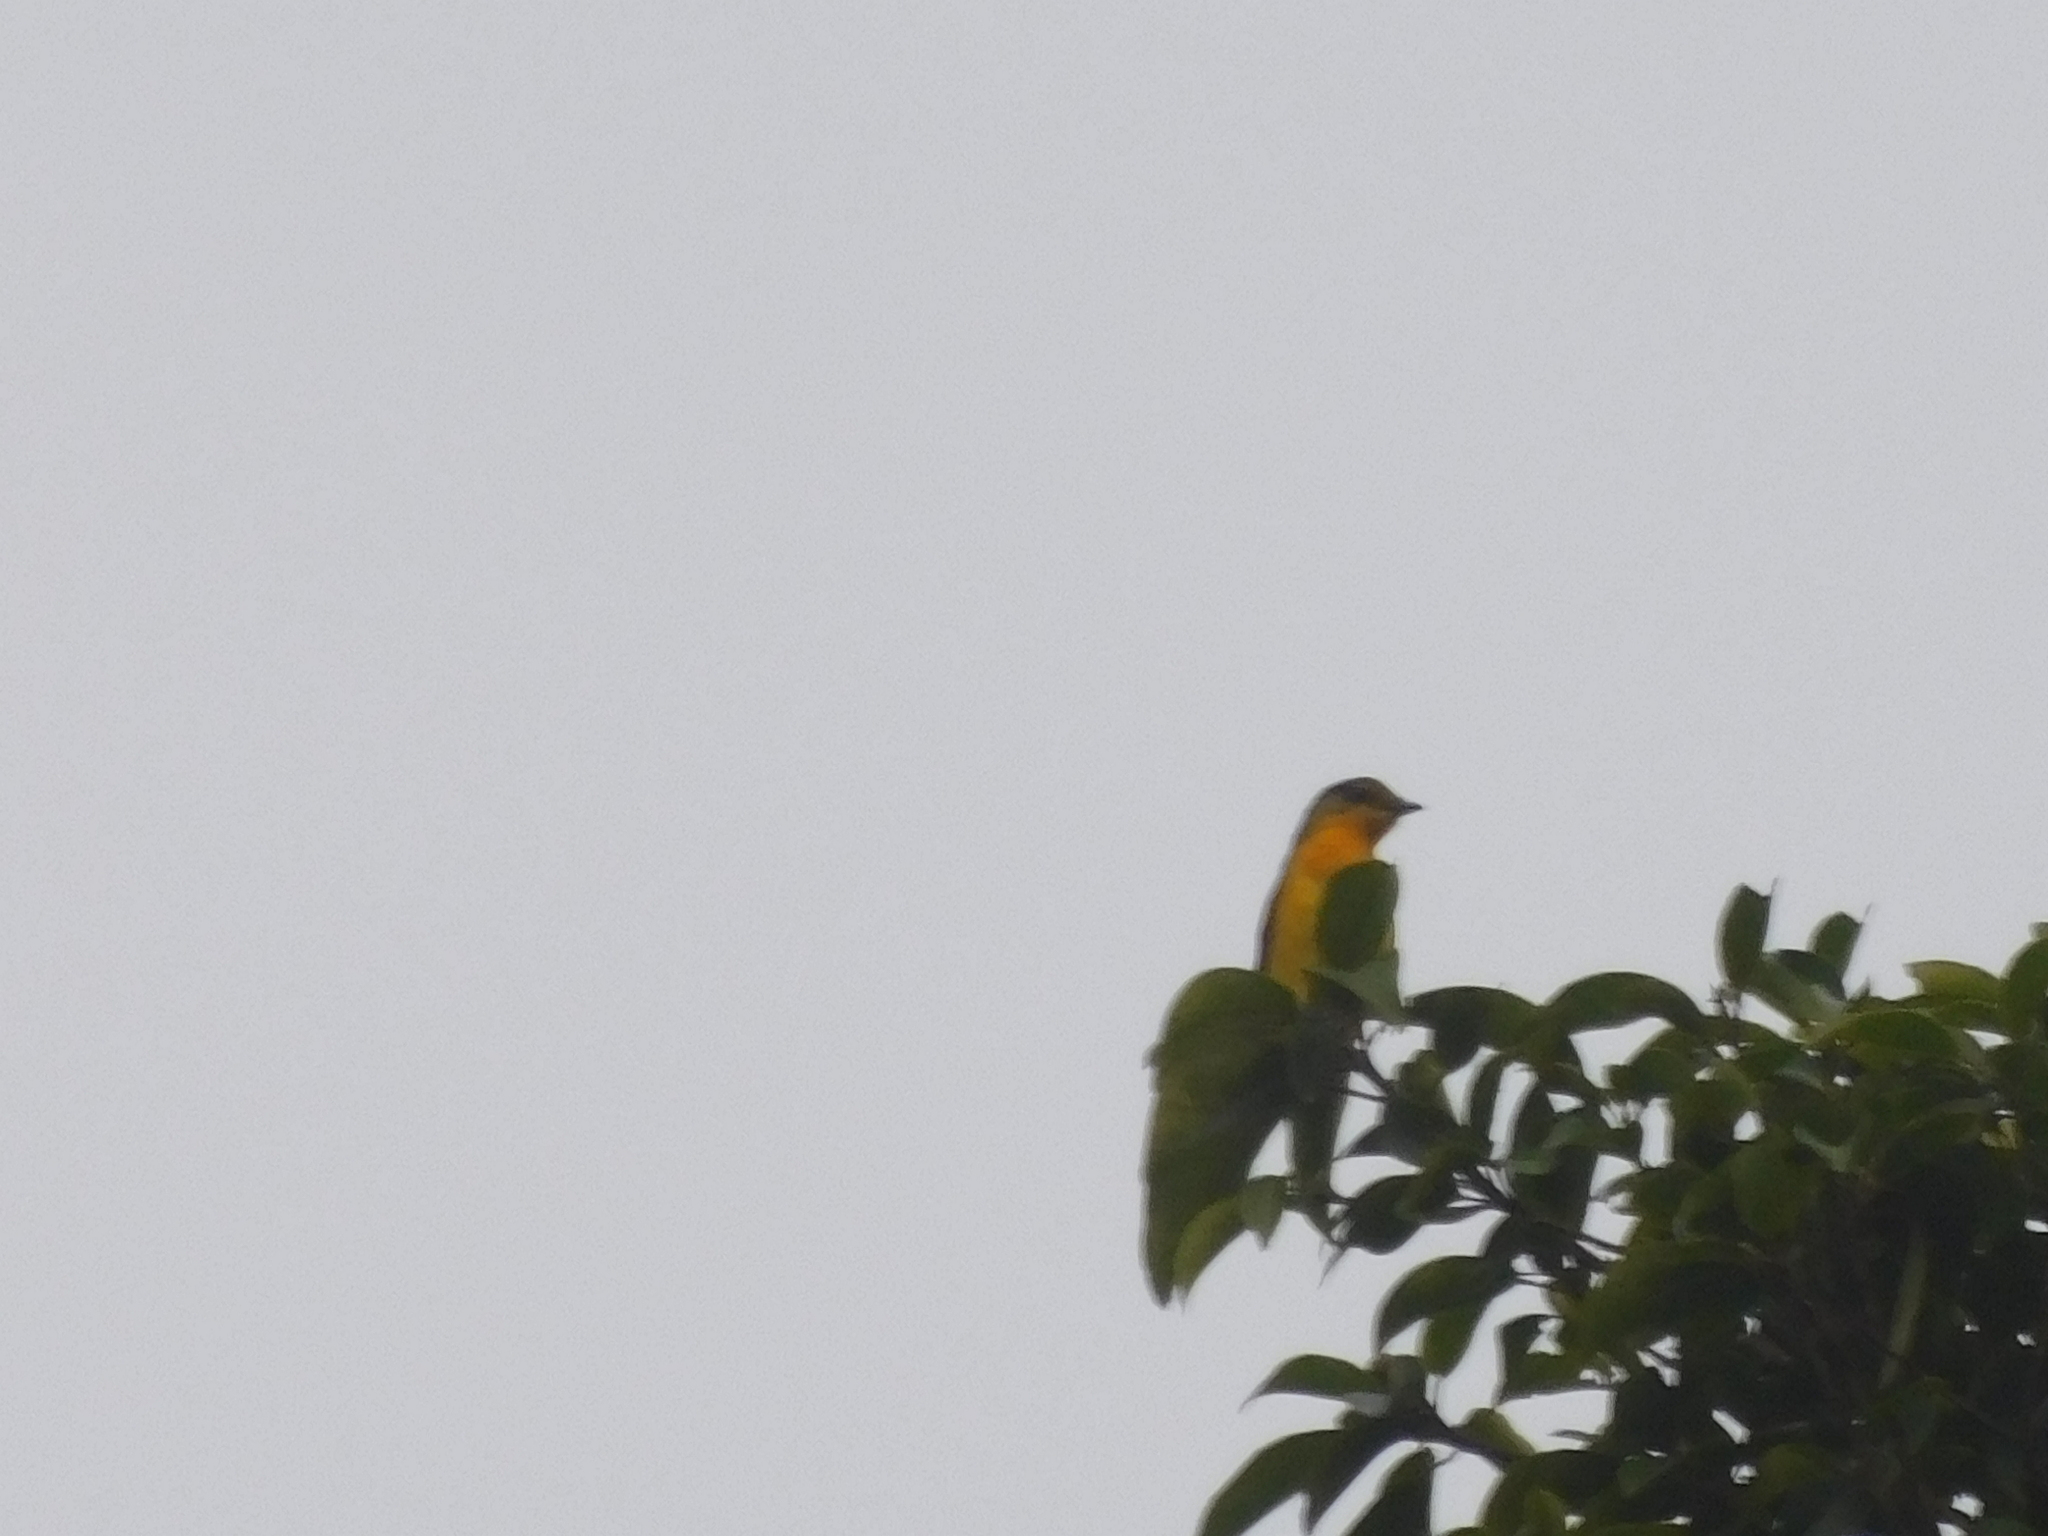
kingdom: Animalia
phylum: Chordata
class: Aves
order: Passeriformes
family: Campephagidae
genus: Pericrocotus
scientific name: Pericrocotus speciosus
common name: Scarlet minivet
